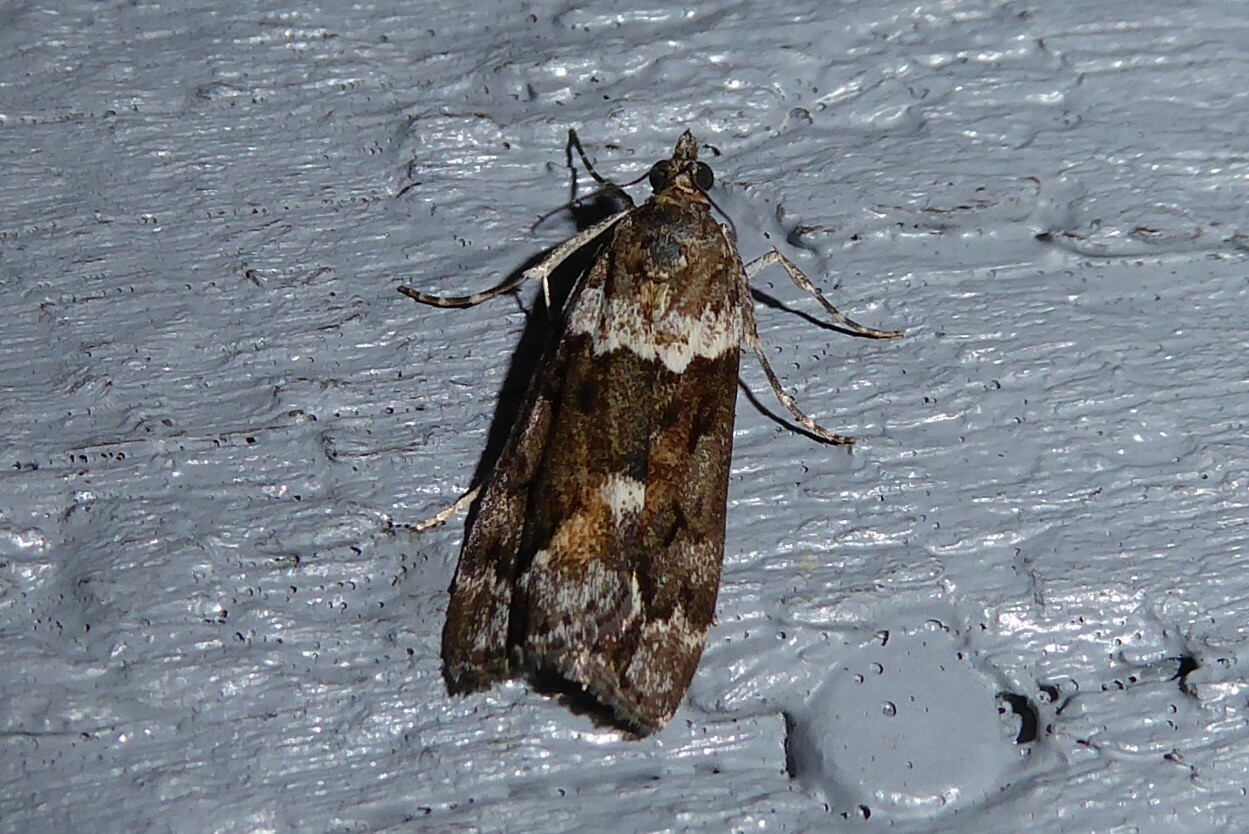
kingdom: Animalia
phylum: Arthropoda
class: Insecta
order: Lepidoptera
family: Crambidae
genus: Eudonia
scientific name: Eudonia submarginalis
